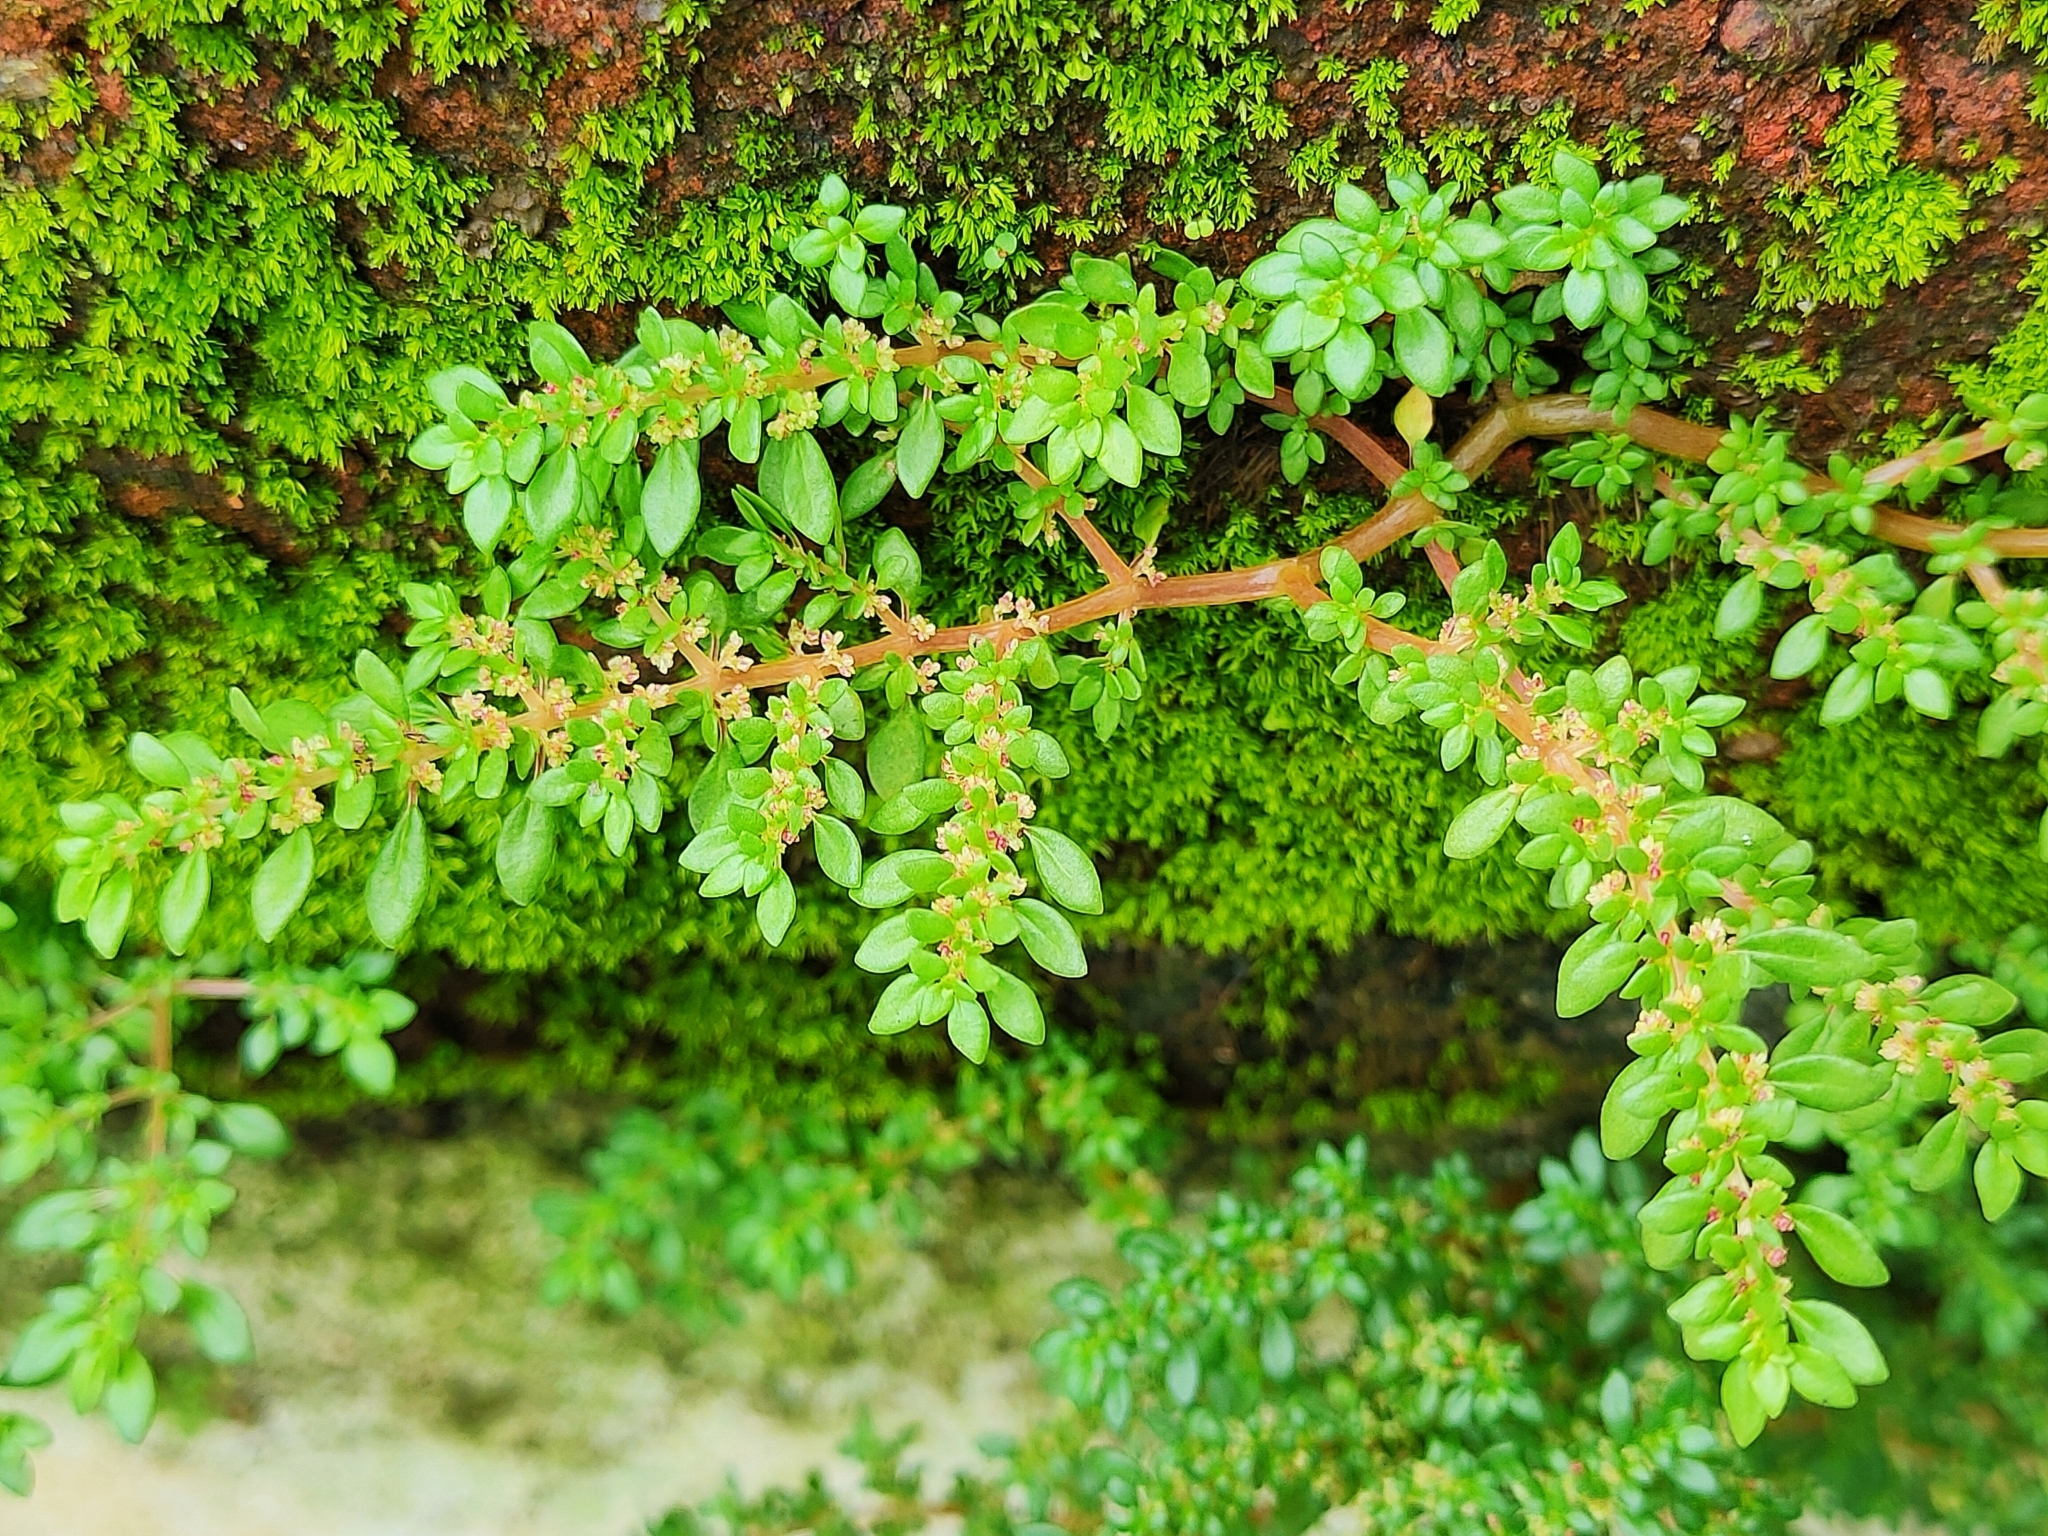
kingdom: Plantae
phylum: Tracheophyta
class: Magnoliopsida
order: Rosales
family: Urticaceae
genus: Pilea
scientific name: Pilea microphylla
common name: Artillery-plant
